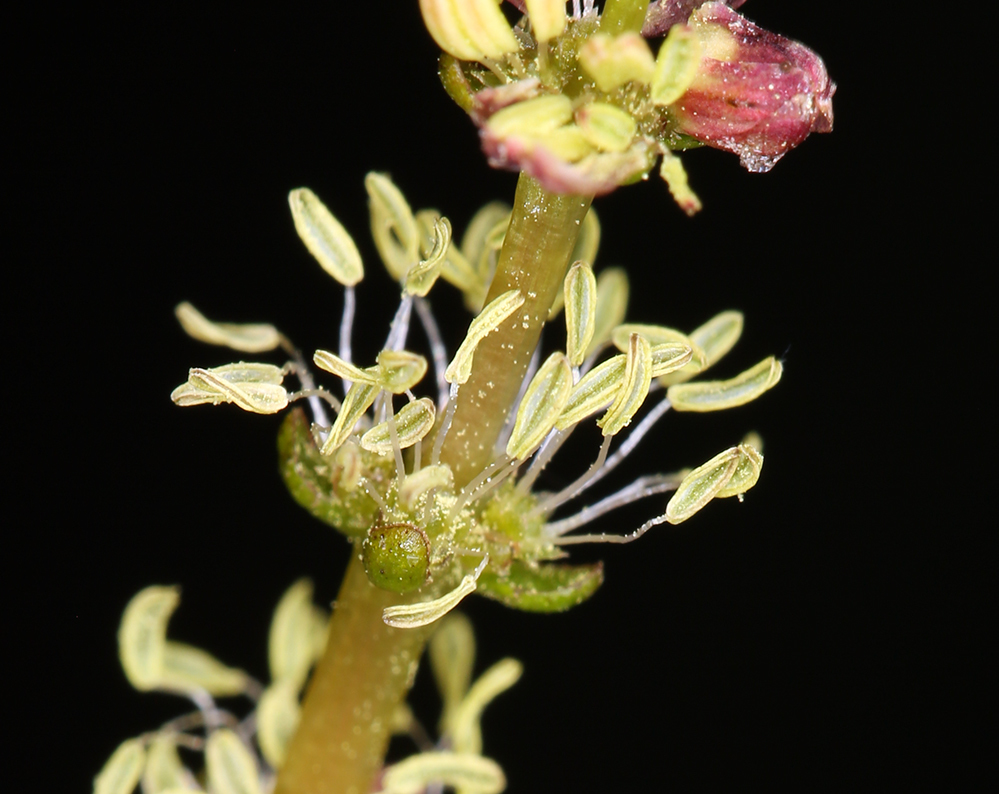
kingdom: Plantae
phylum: Tracheophyta
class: Magnoliopsida
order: Saxifragales
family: Haloragaceae
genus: Myriophyllum
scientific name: Myriophyllum sibiricum
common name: Siberian water-milfoil
